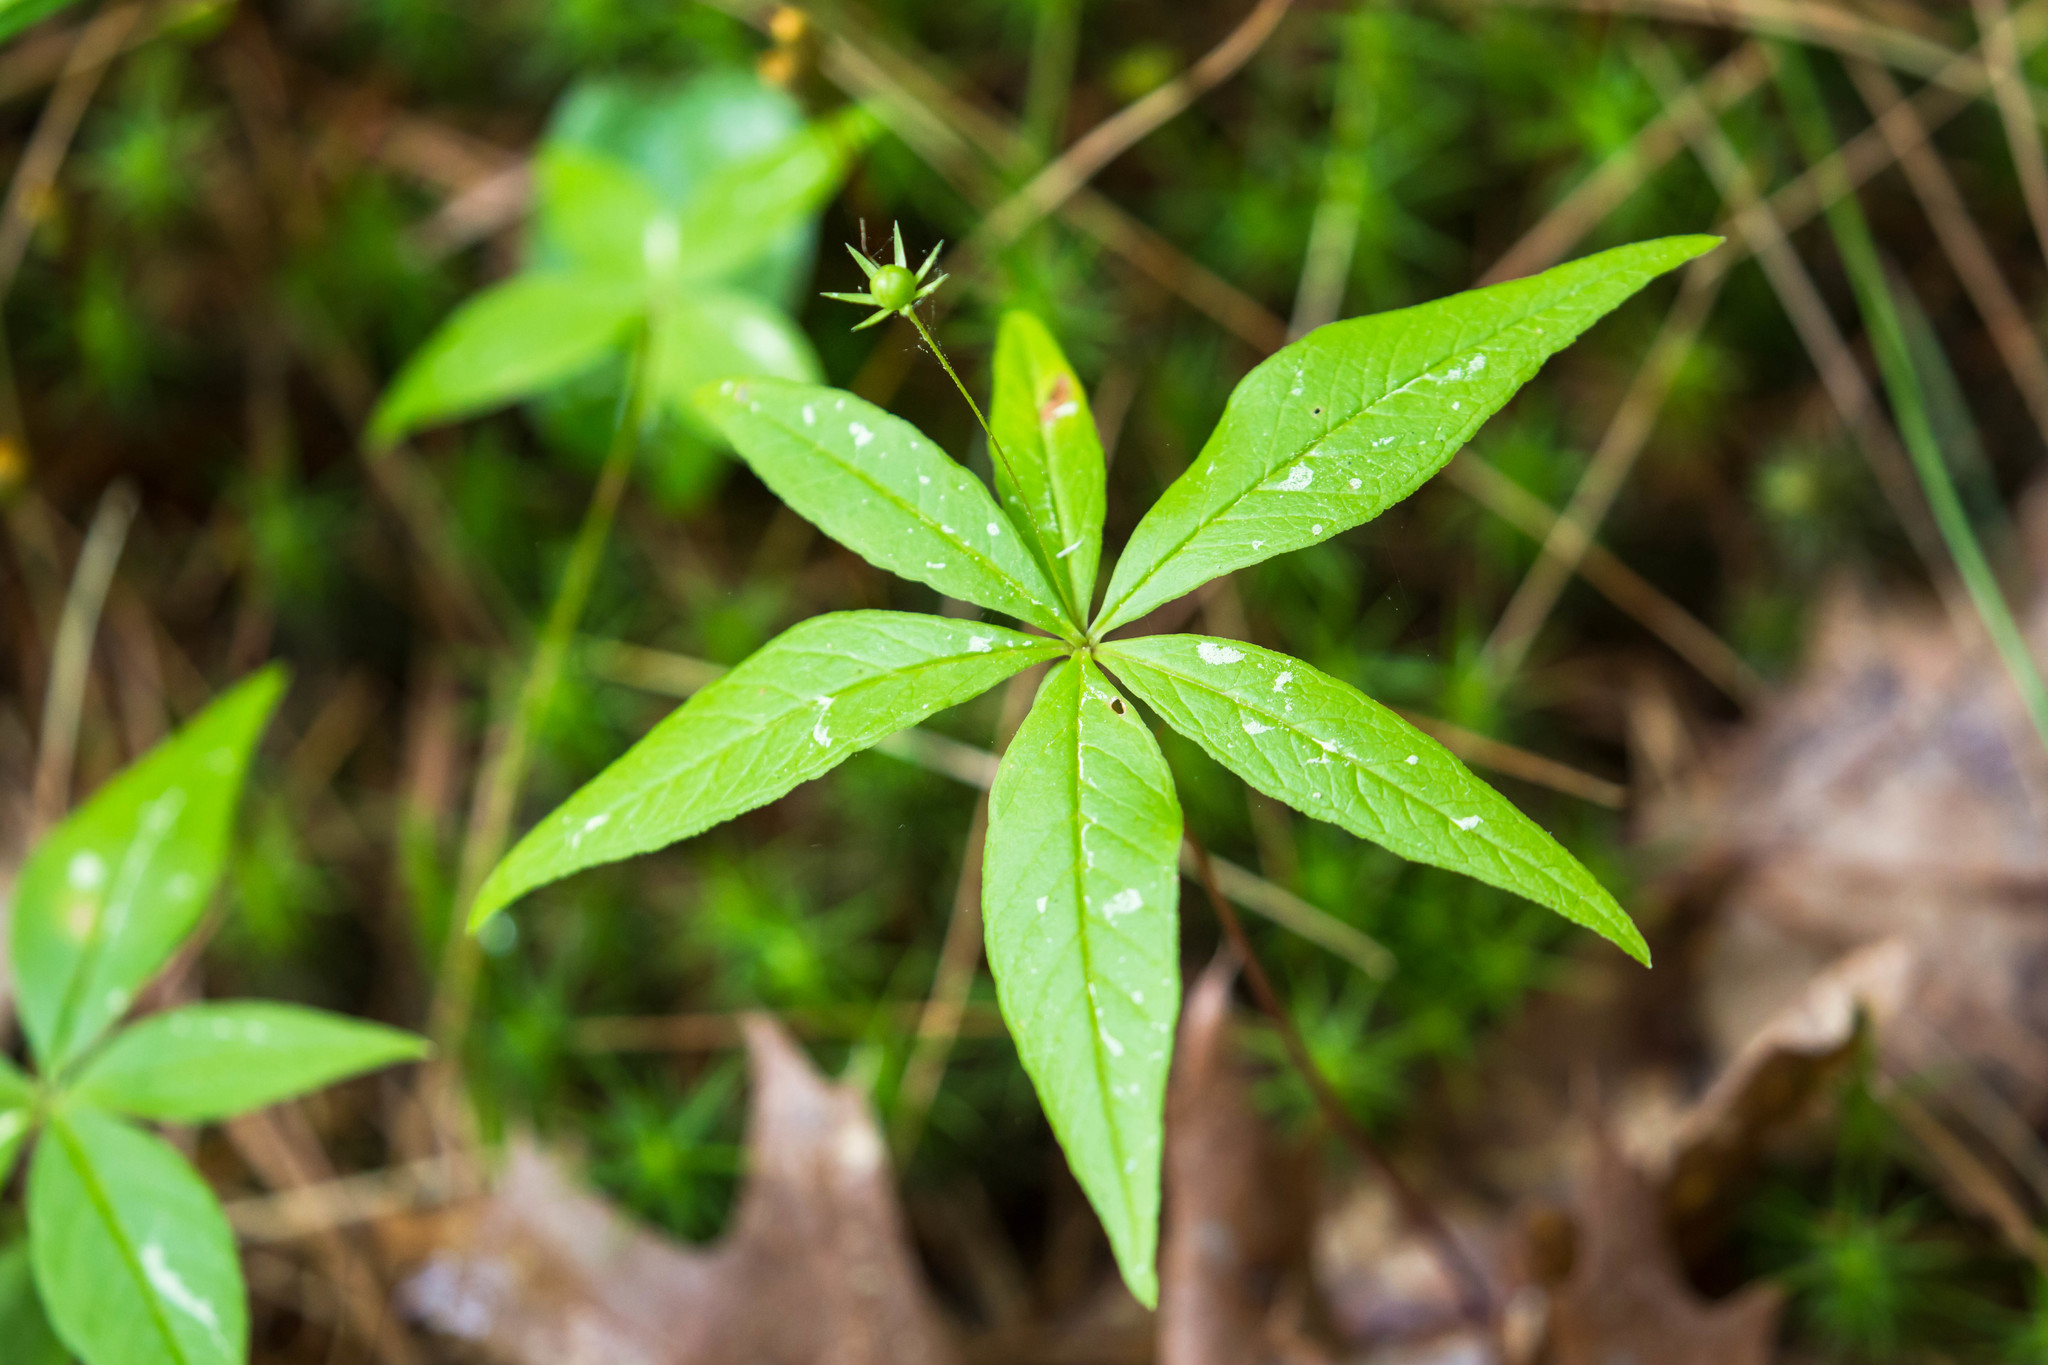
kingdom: Plantae
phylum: Tracheophyta
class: Magnoliopsida
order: Ericales
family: Primulaceae
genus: Lysimachia
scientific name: Lysimachia borealis
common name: American starflower
